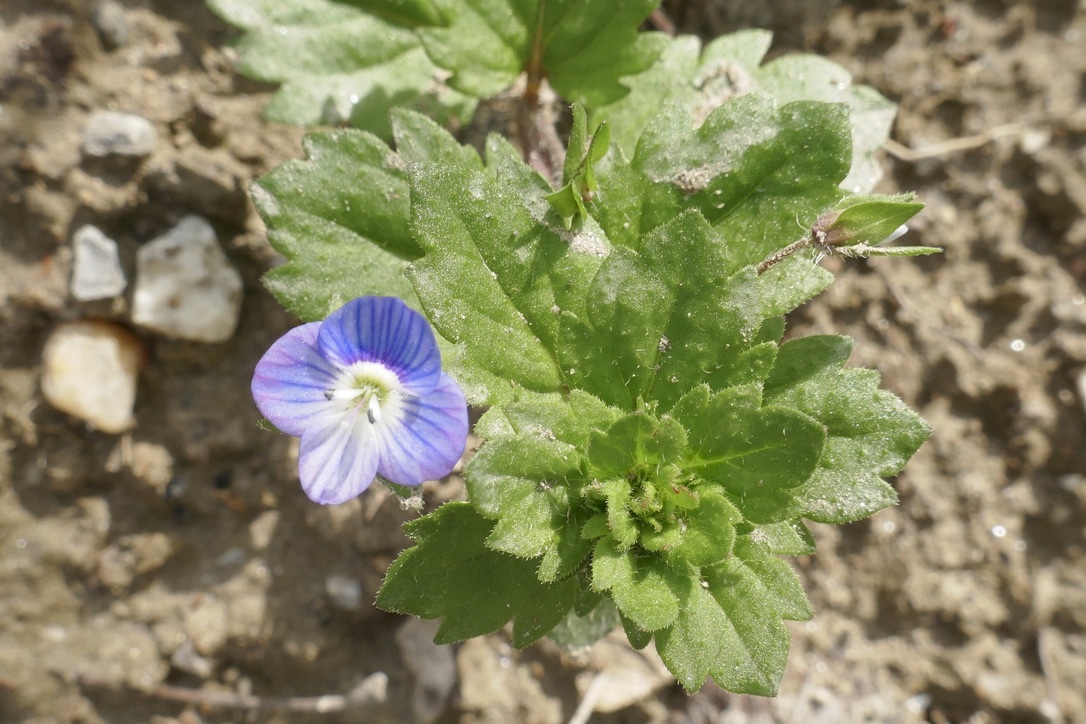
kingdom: Plantae
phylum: Tracheophyta
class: Magnoliopsida
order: Lamiales
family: Plantaginaceae
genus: Veronica
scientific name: Veronica persica
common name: Common field-speedwell
